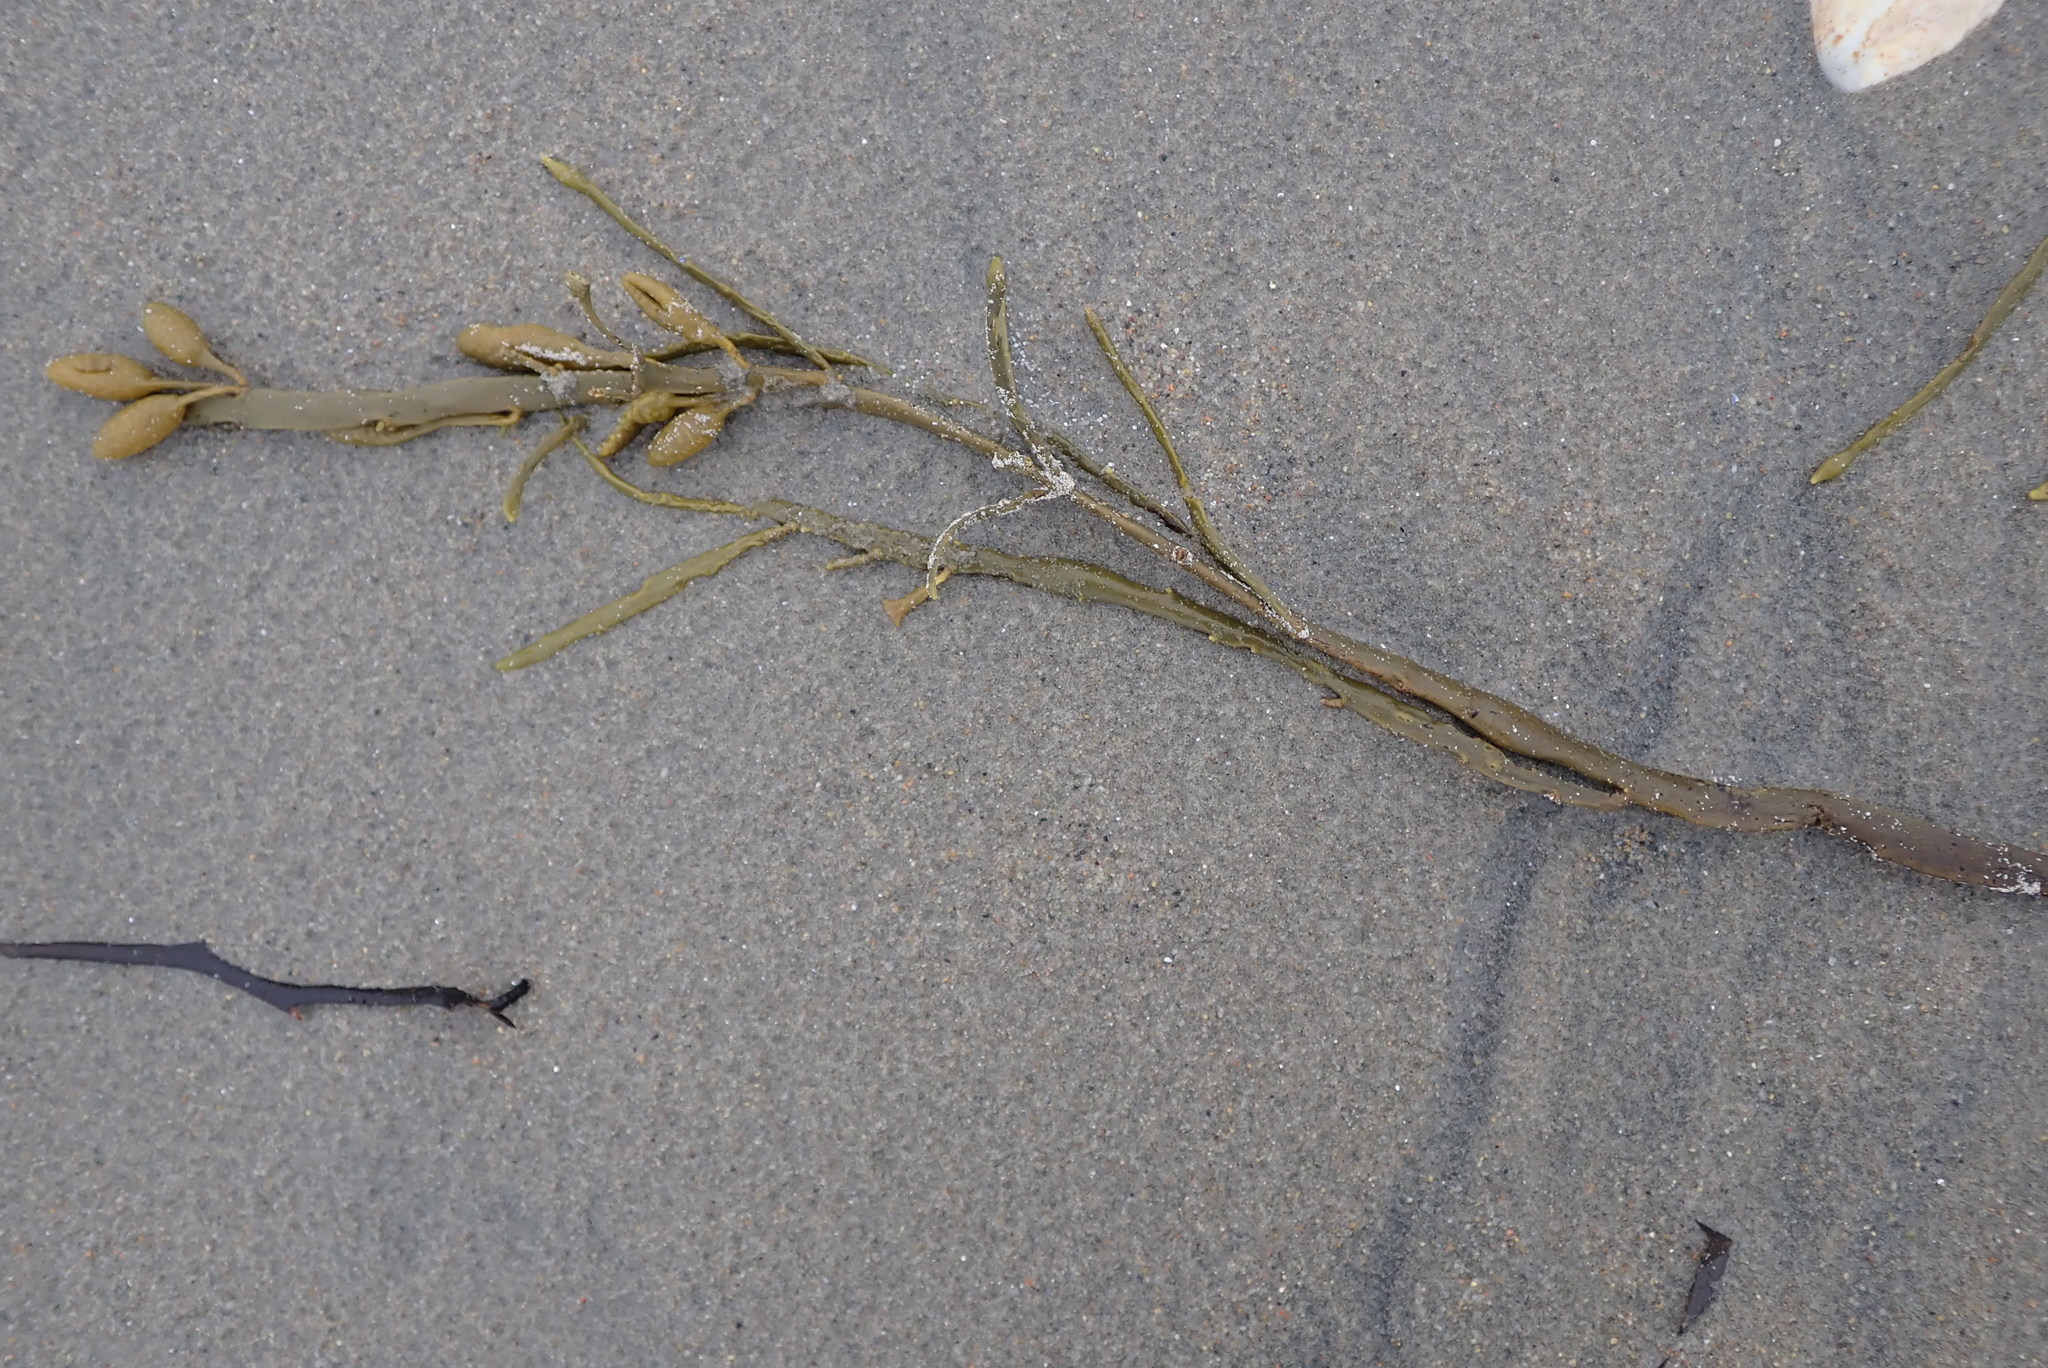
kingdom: Chromista
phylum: Ochrophyta
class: Phaeophyceae
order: Fucales
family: Fucaceae
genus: Ascophyllum
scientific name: Ascophyllum nodosum
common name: Knotted wrack
